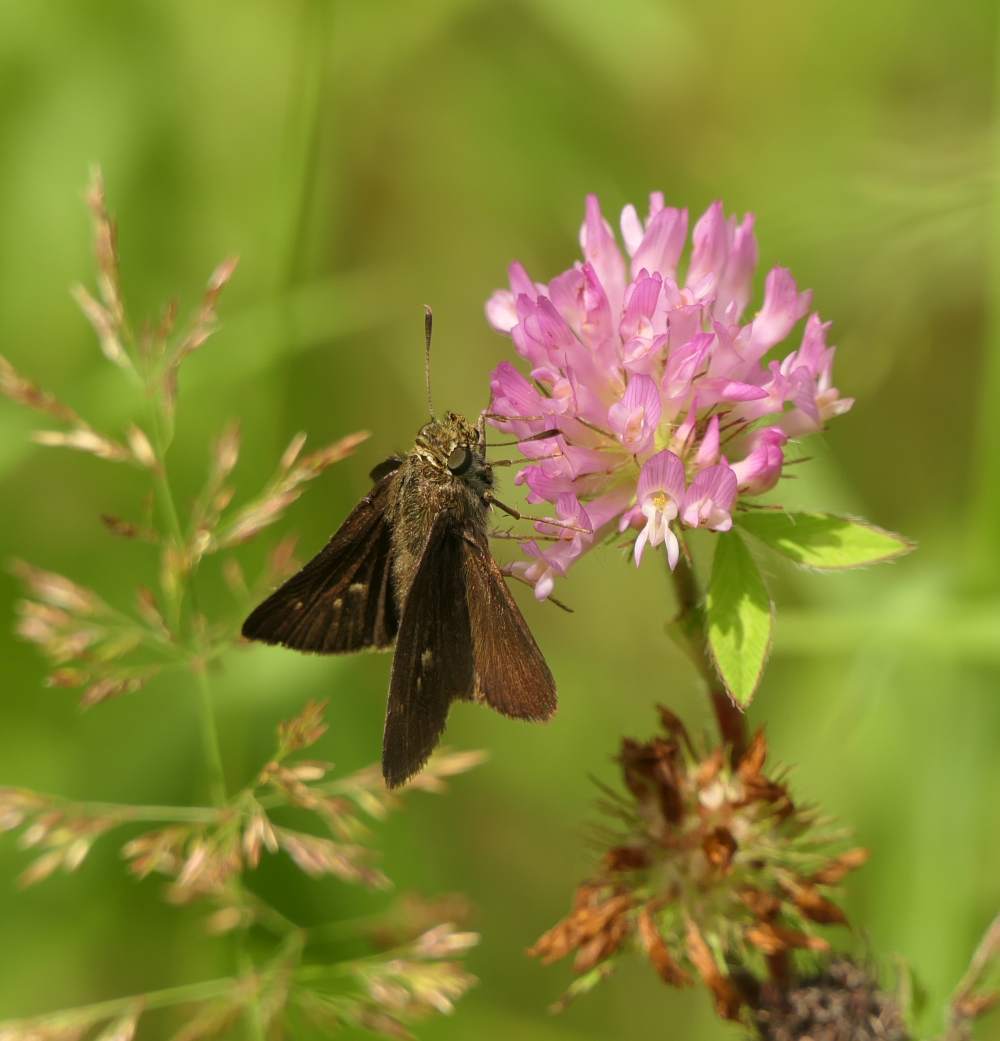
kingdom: Animalia
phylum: Arthropoda
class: Insecta
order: Lepidoptera
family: Hesperiidae
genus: Euphyes
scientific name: Euphyes vestris
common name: Dun skipper
